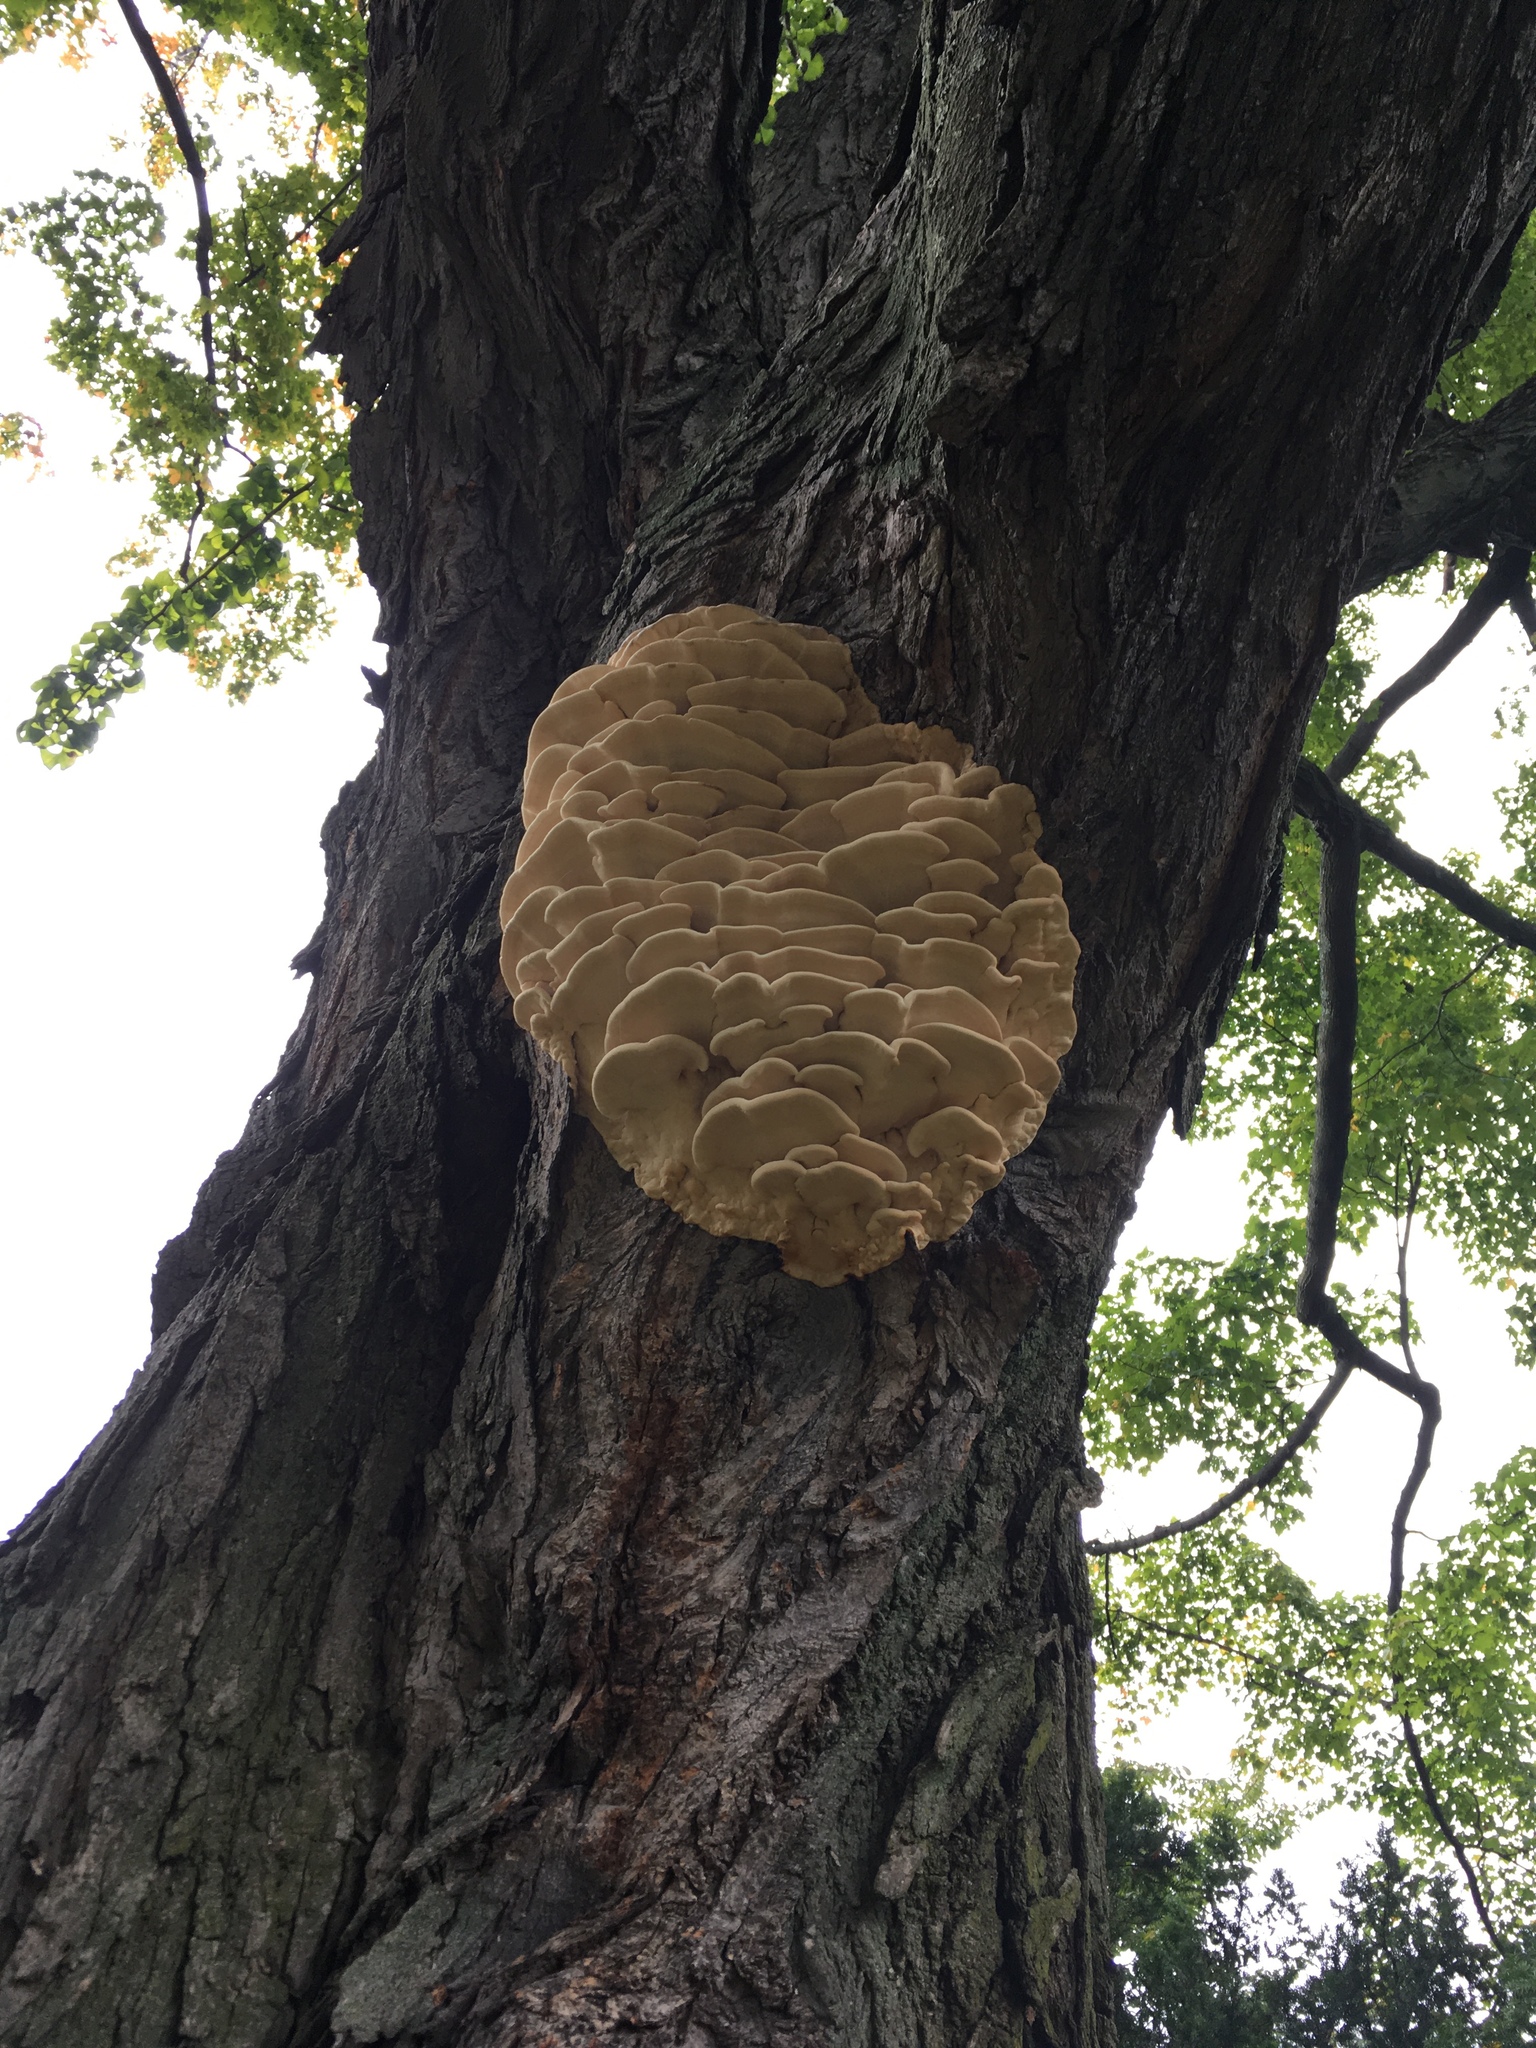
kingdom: Fungi
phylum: Basidiomycota
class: Agaricomycetes
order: Polyporales
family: Meruliaceae
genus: Climacodon
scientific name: Climacodon septentrionalis
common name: Northern tooth
